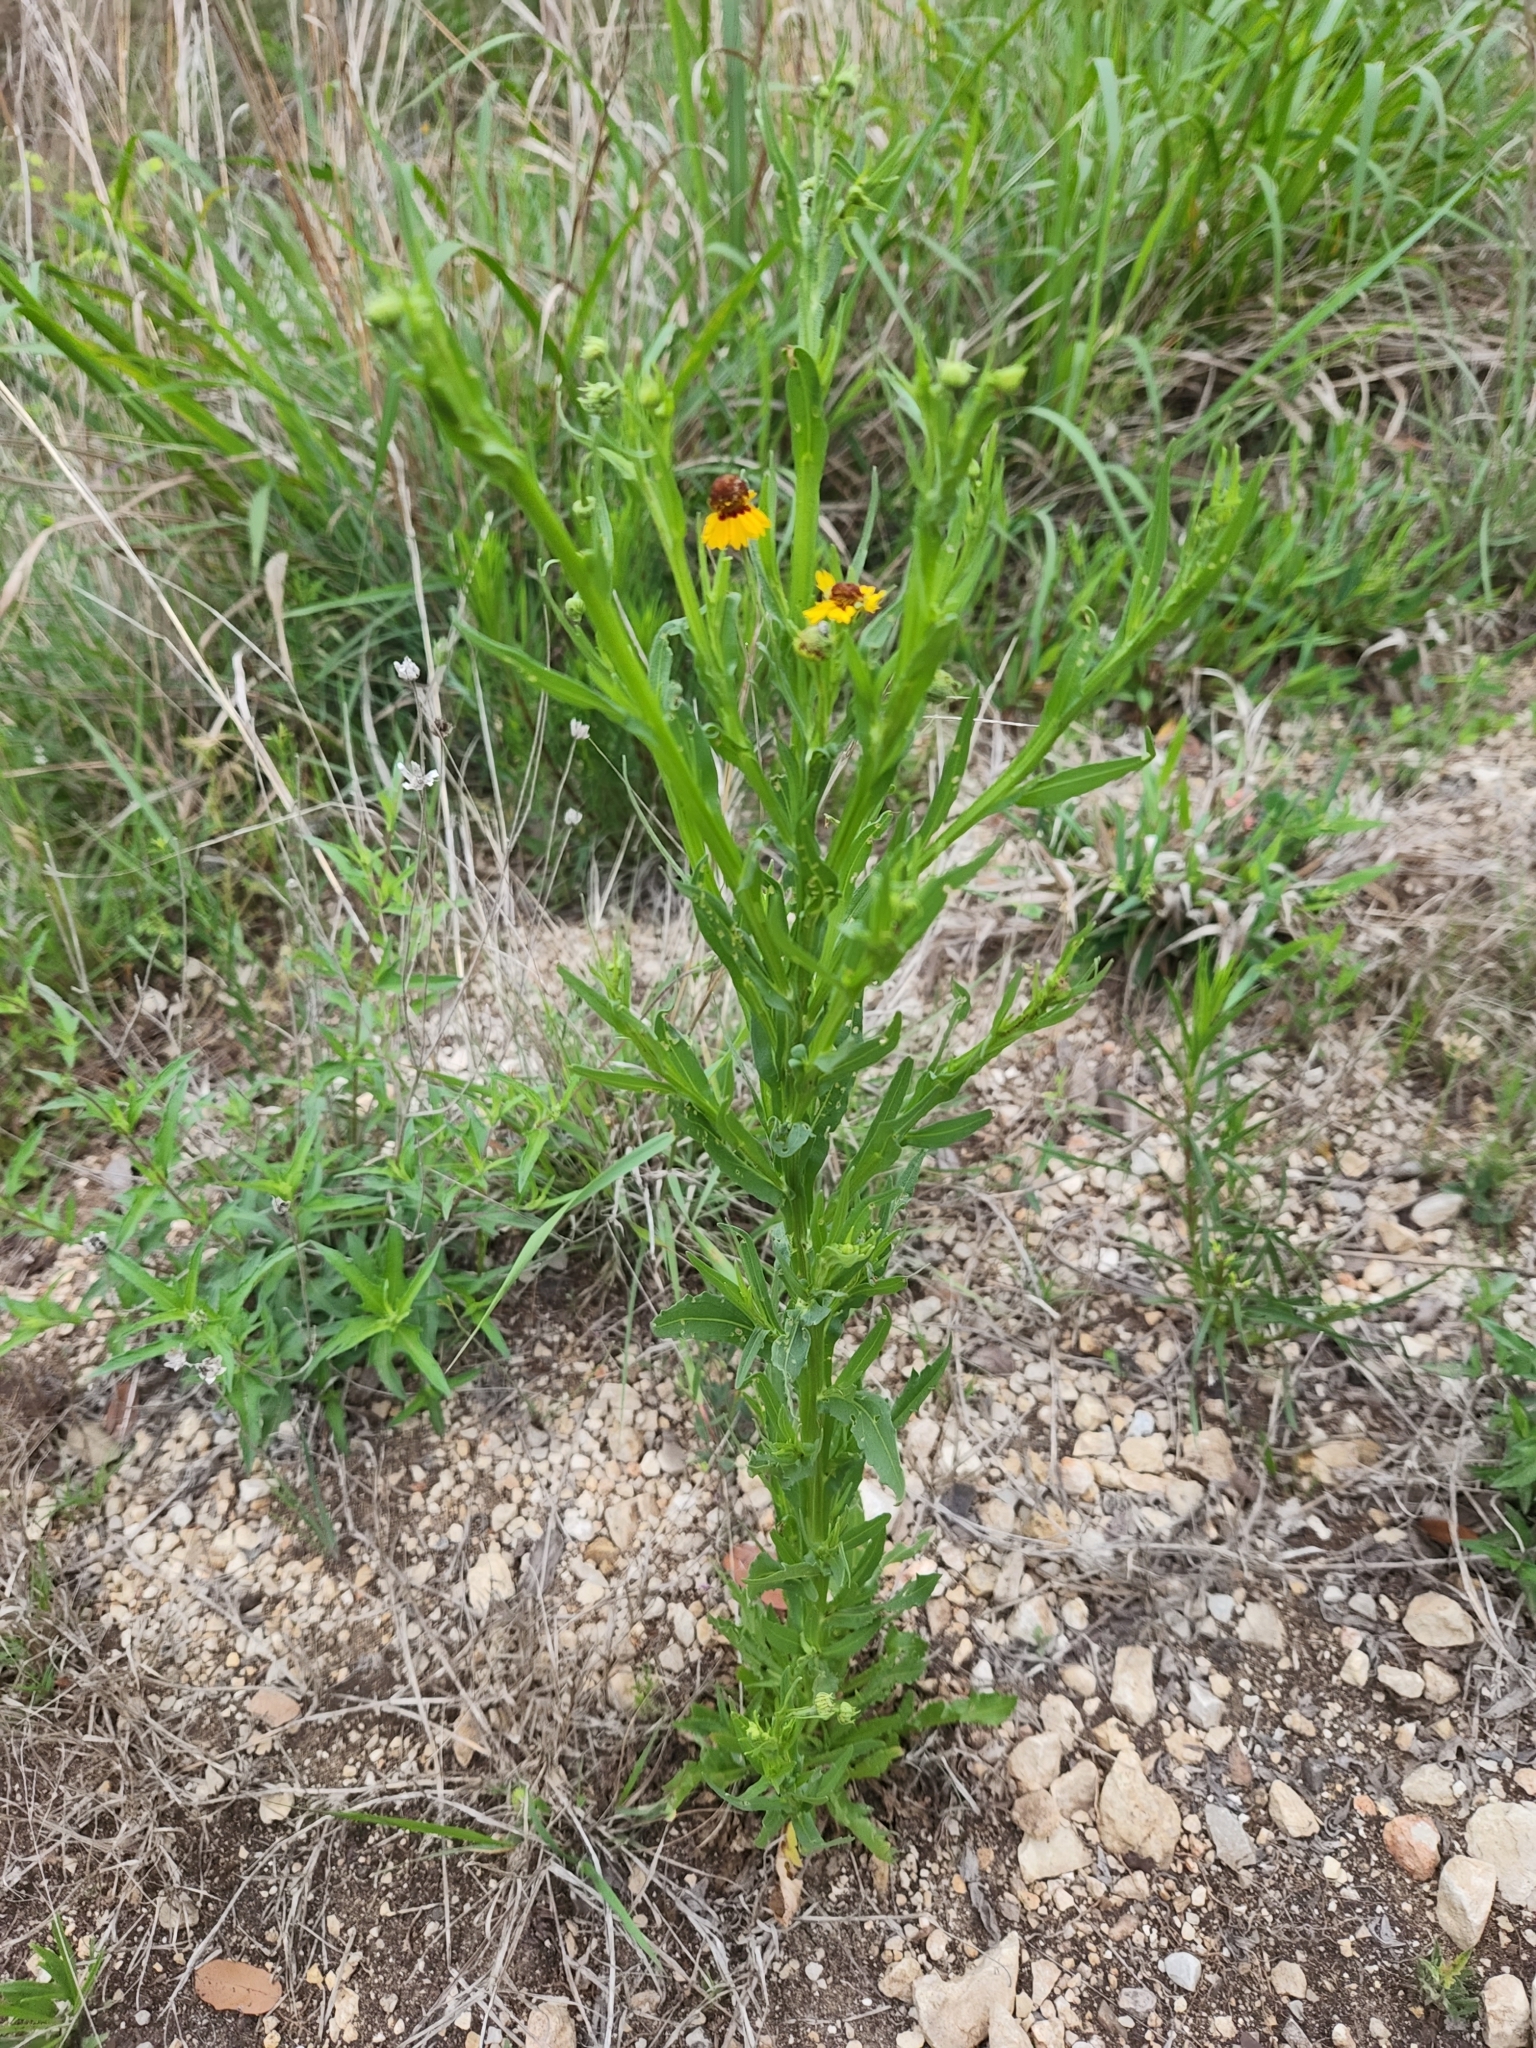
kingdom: Plantae
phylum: Tracheophyta
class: Magnoliopsida
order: Asterales
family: Asteraceae
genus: Helenium
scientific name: Helenium elegans
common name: Pretty sneezeweed
